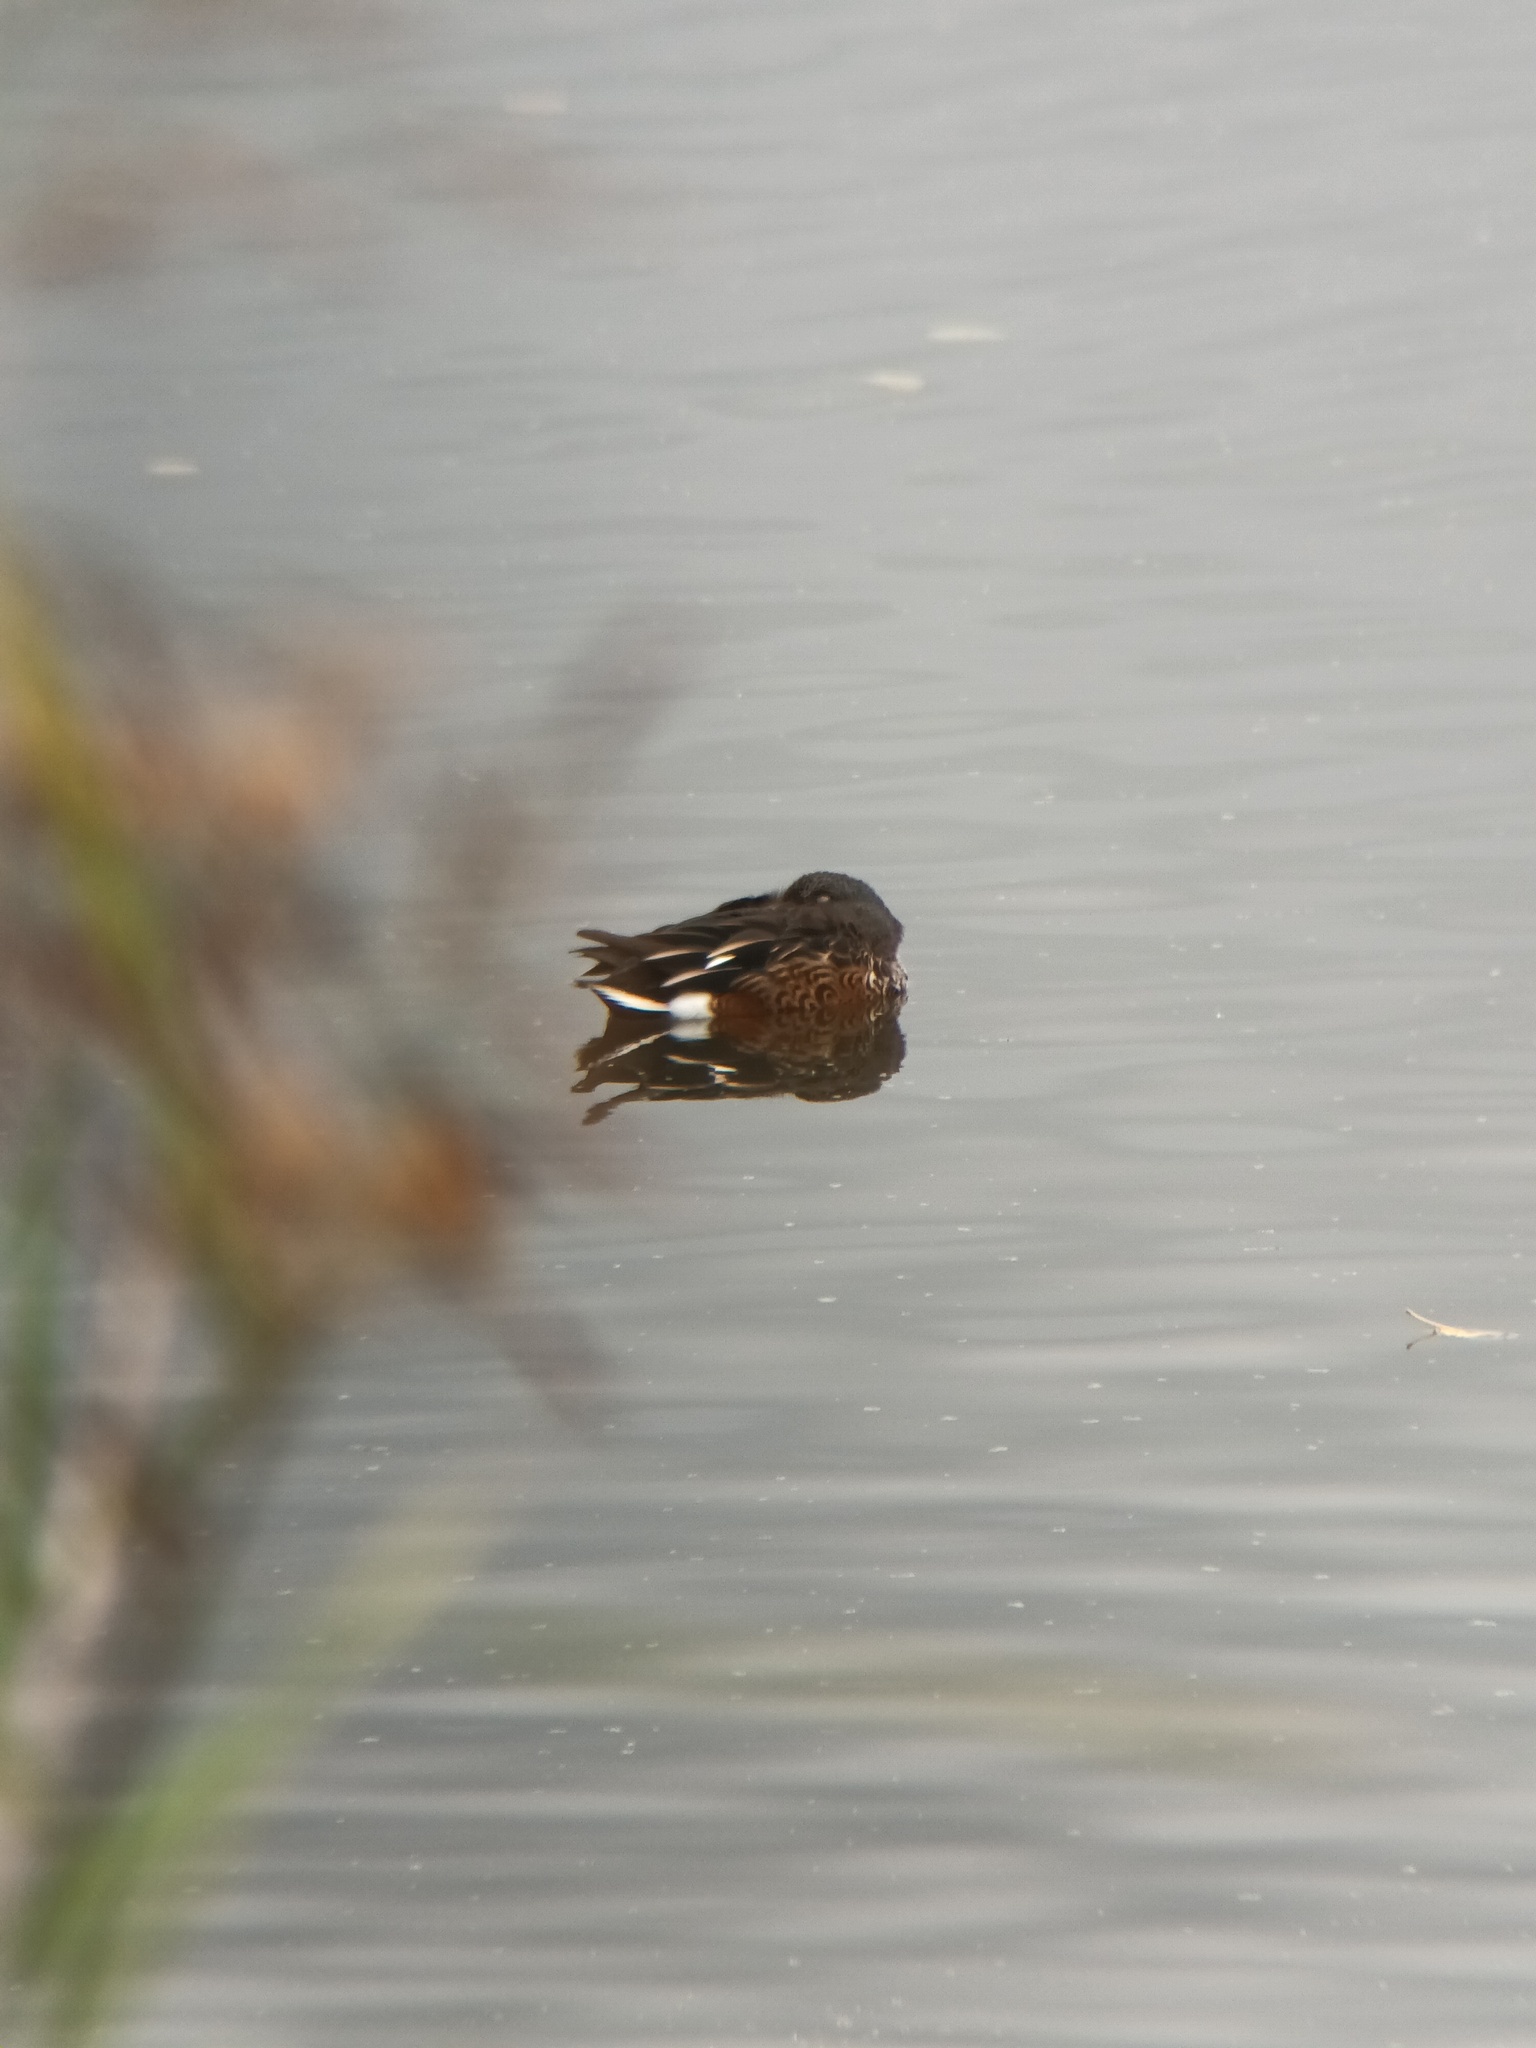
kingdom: Animalia
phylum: Chordata
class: Aves
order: Anseriformes
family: Anatidae
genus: Spatula
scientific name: Spatula clypeata
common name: Northern shoveler
